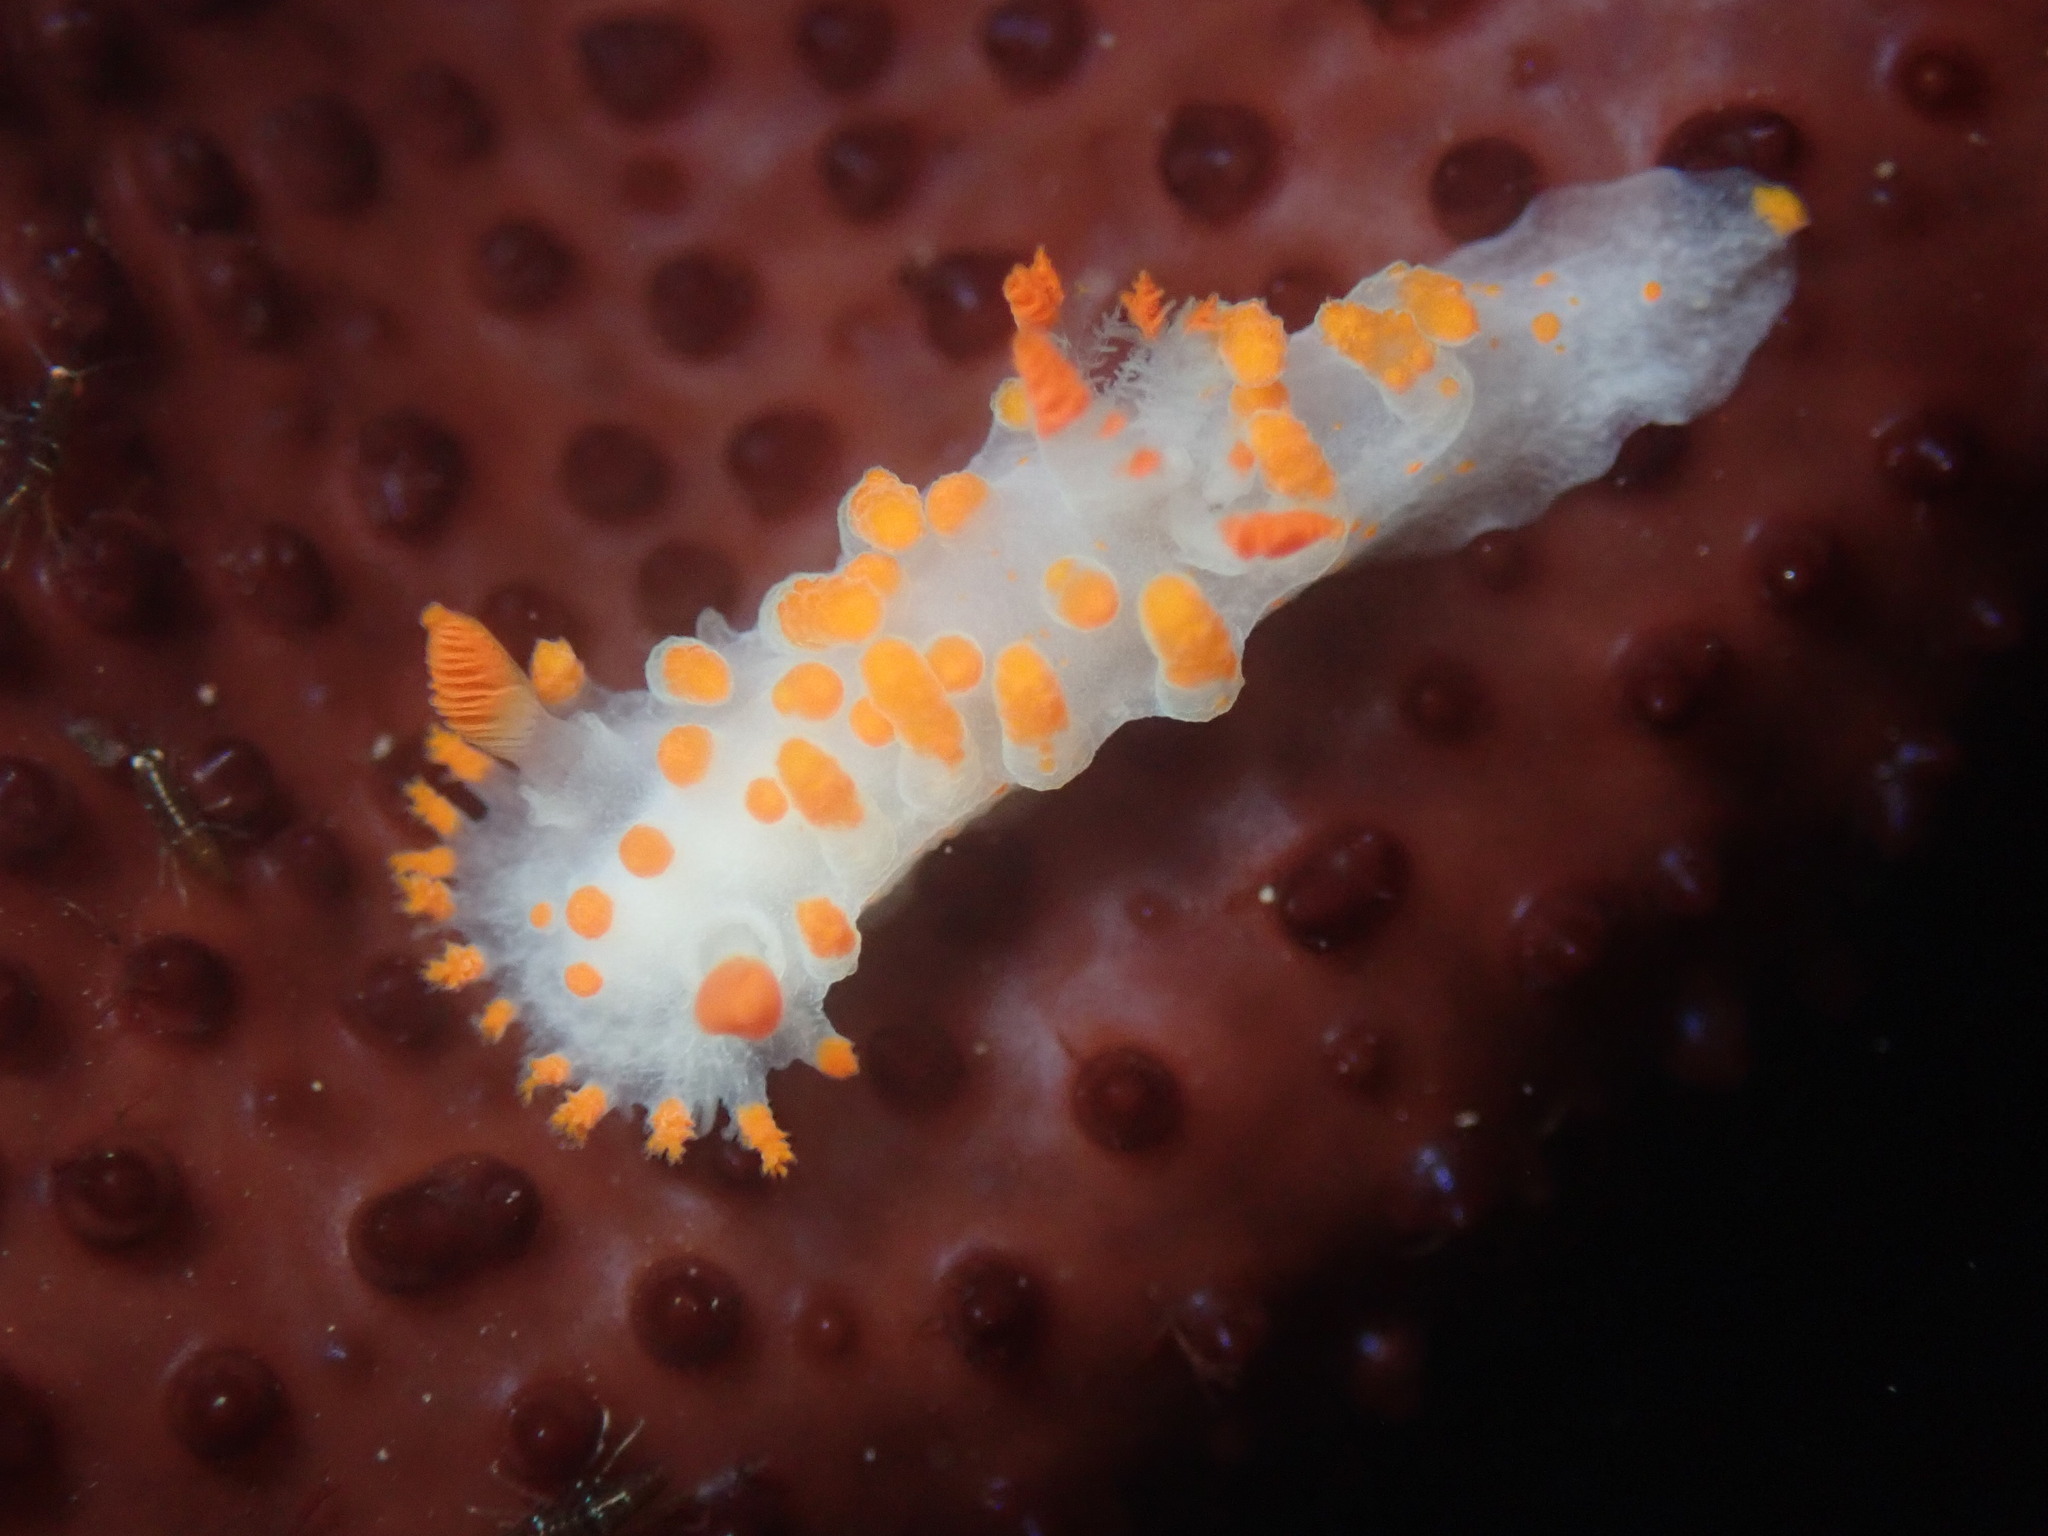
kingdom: Animalia
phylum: Mollusca
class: Gastropoda
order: Nudibranchia
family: Polyceridae
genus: Triopha
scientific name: Triopha catalinae
